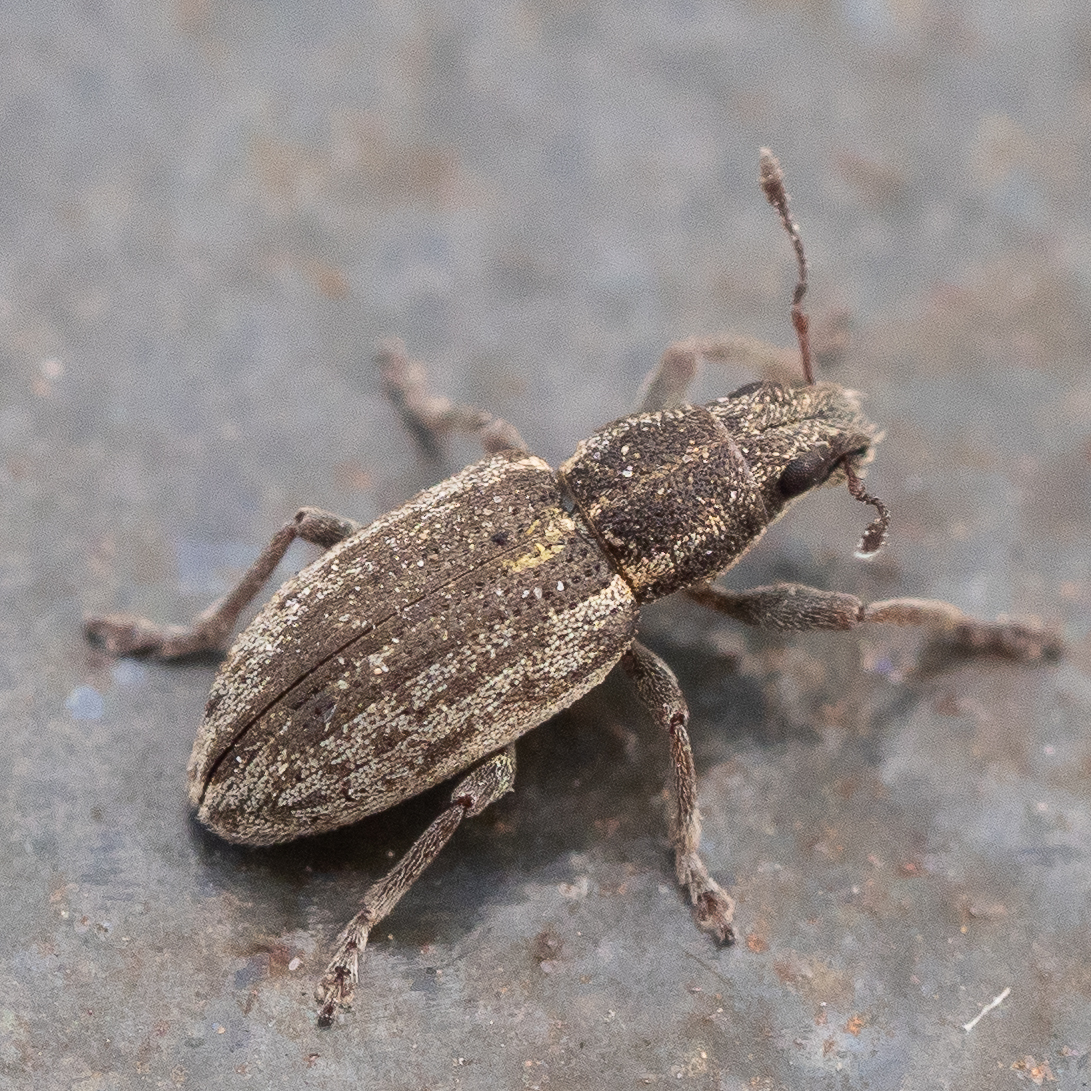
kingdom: Animalia
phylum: Arthropoda
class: Insecta
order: Coleoptera
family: Curculionidae
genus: Sitona
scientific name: Sitona humeralis
